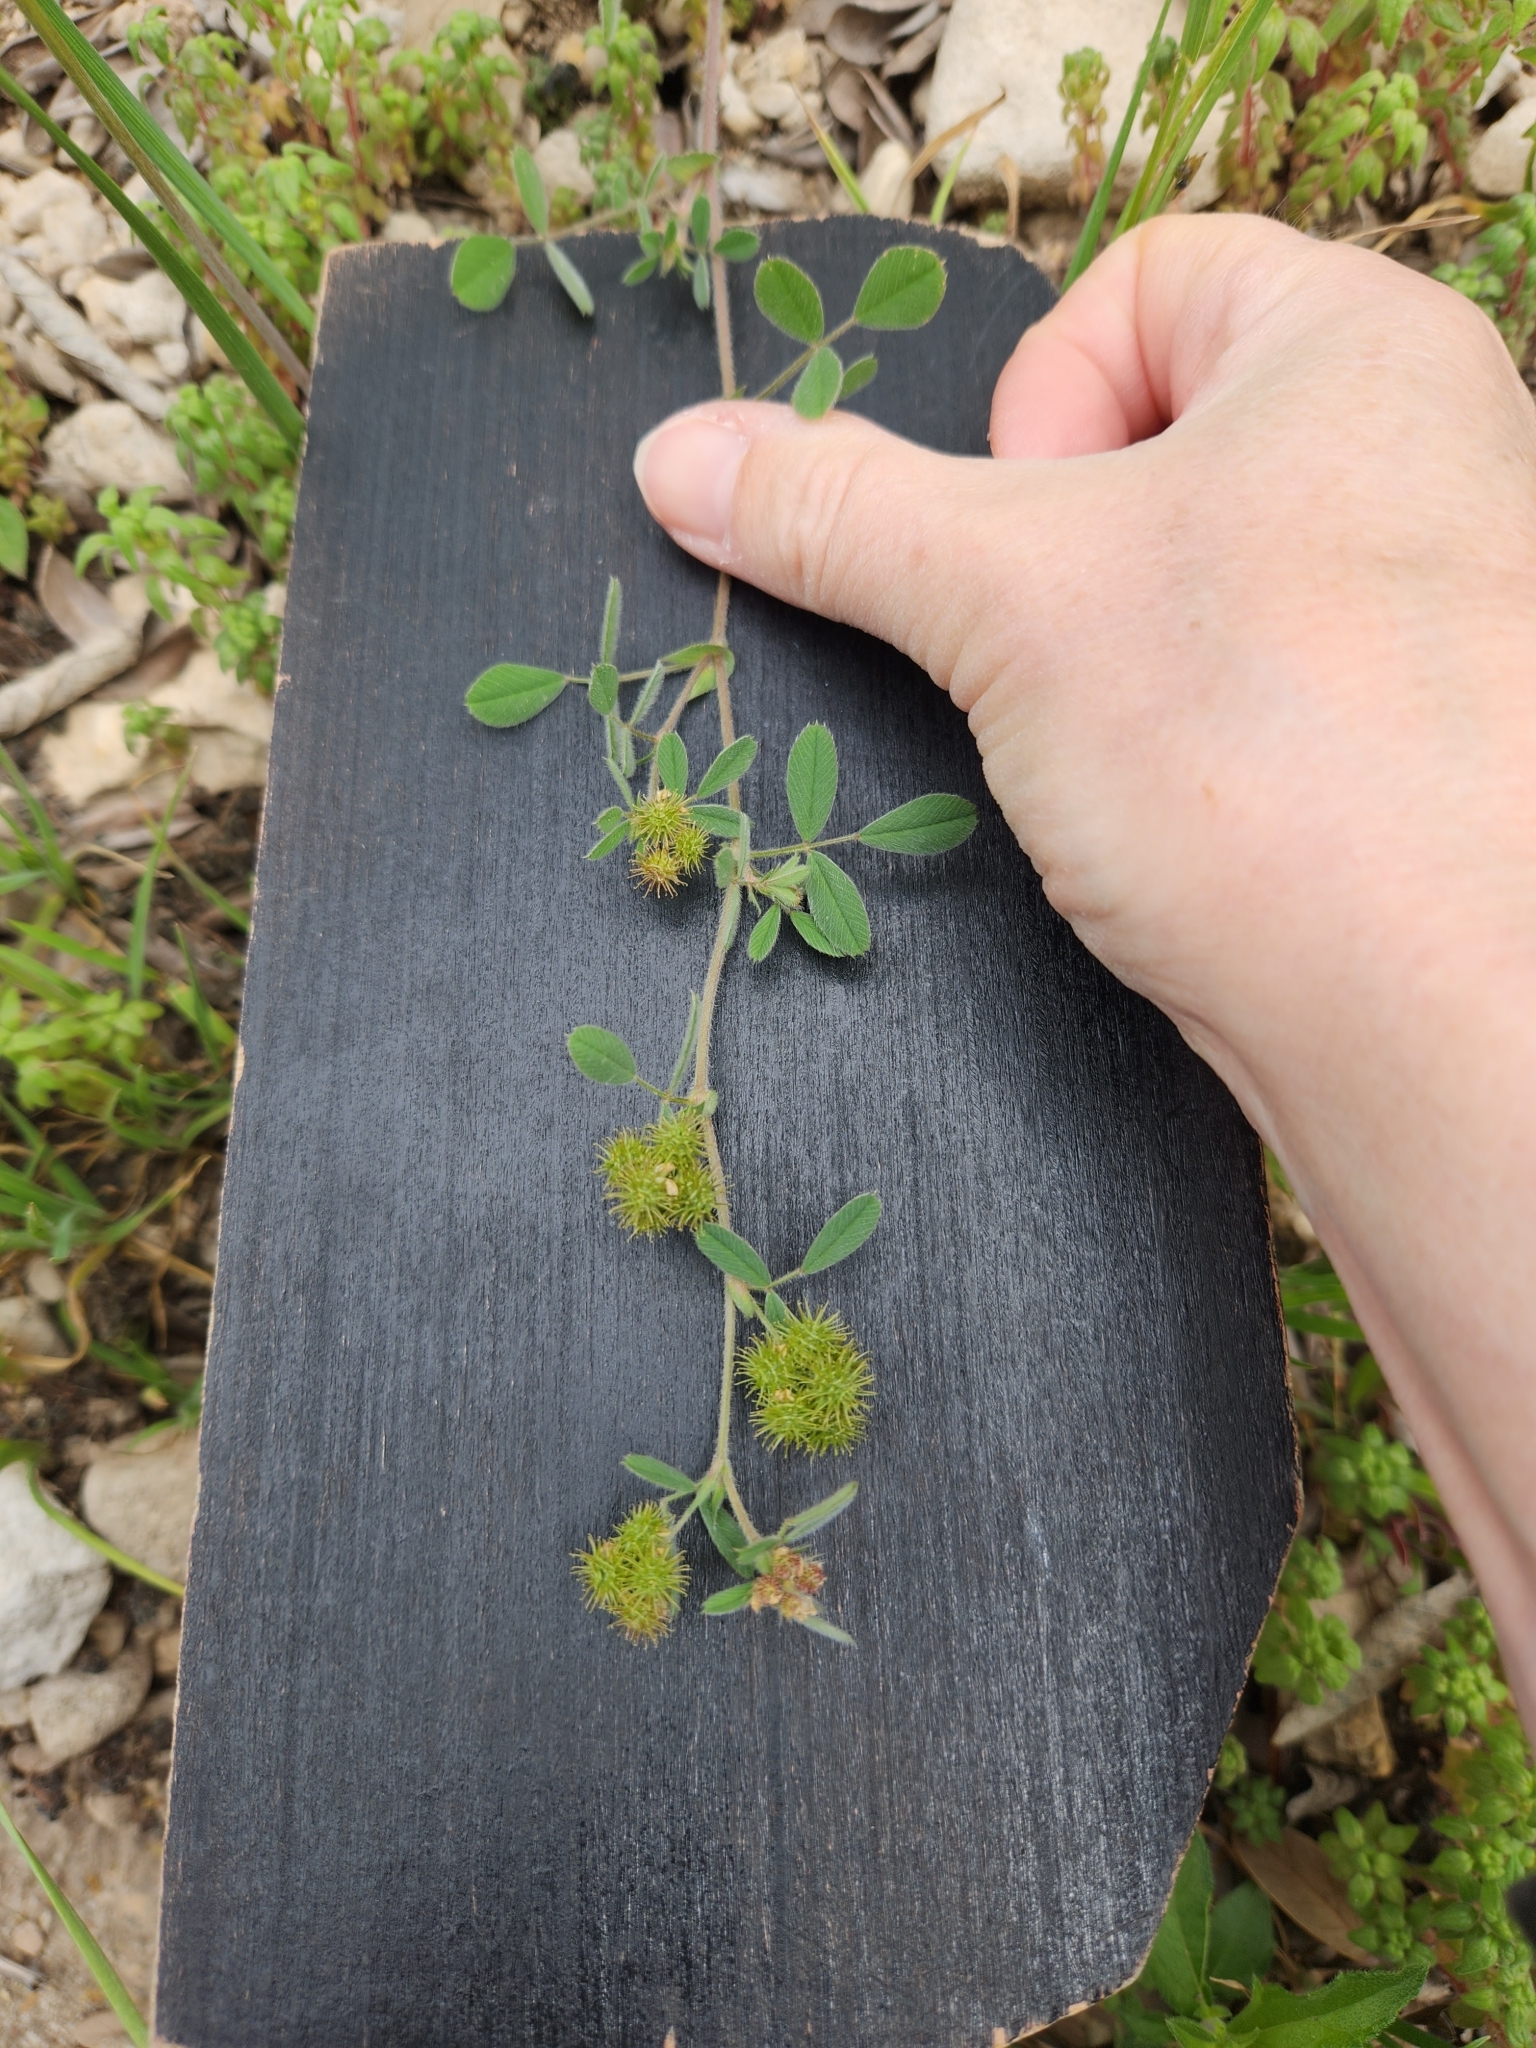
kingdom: Plantae
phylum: Tracheophyta
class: Magnoliopsida
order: Fabales
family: Fabaceae
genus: Medicago
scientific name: Medicago minima
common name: Little bur-clover
